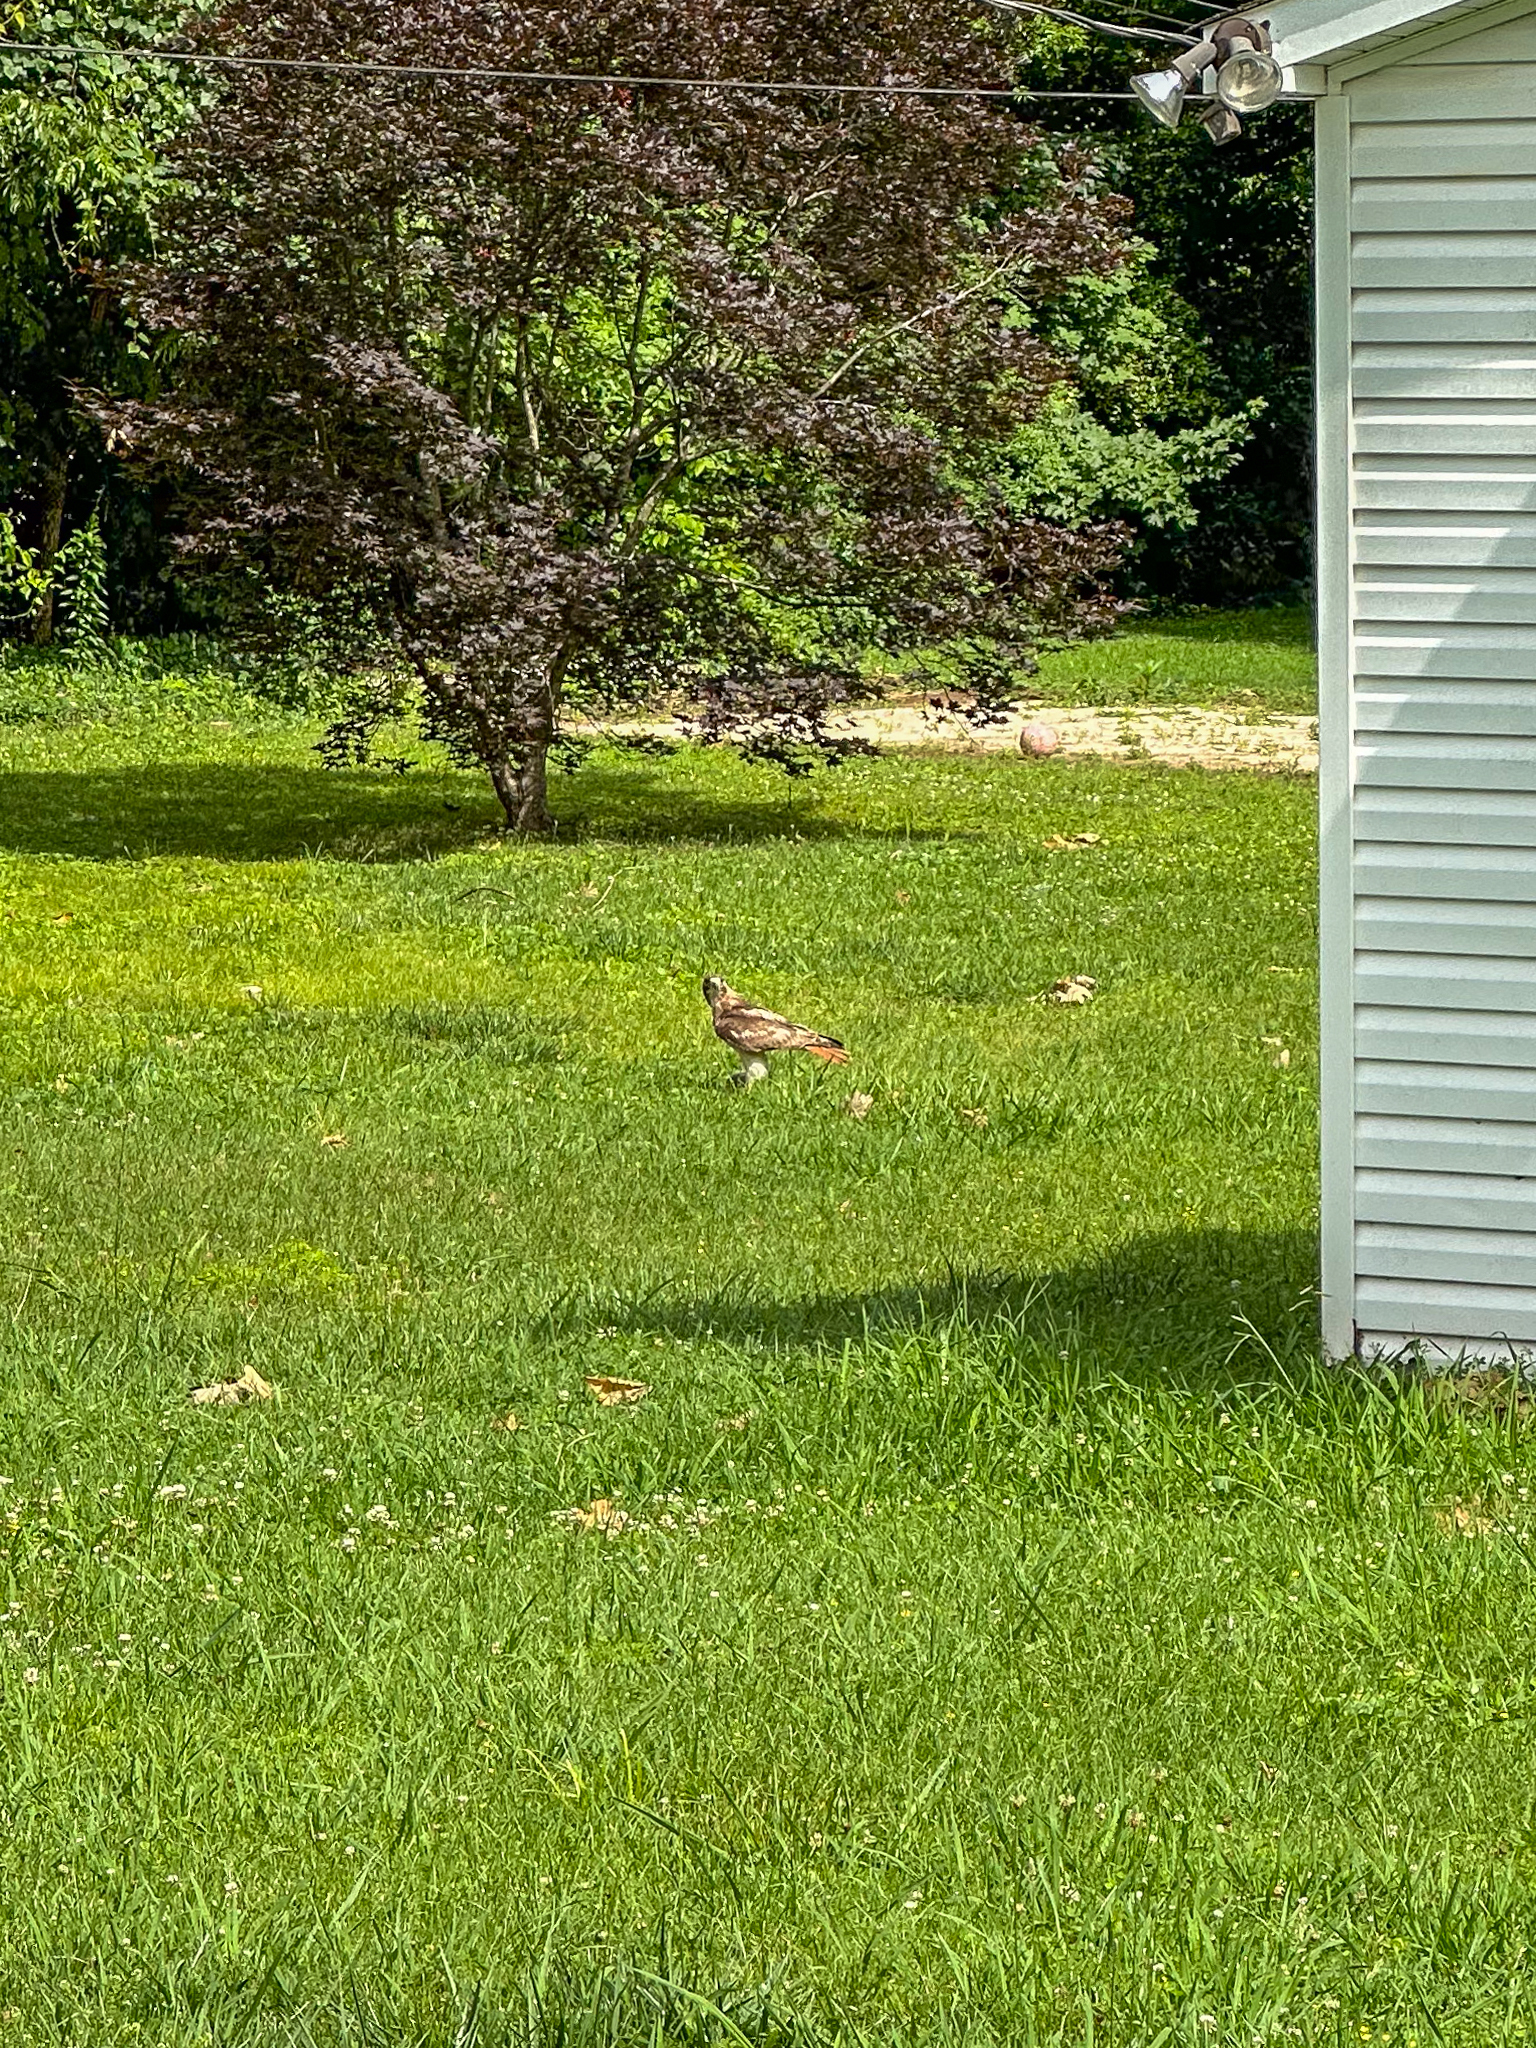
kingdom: Animalia
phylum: Chordata
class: Aves
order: Accipitriformes
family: Accipitridae
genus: Buteo
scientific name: Buteo jamaicensis
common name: Red-tailed hawk
